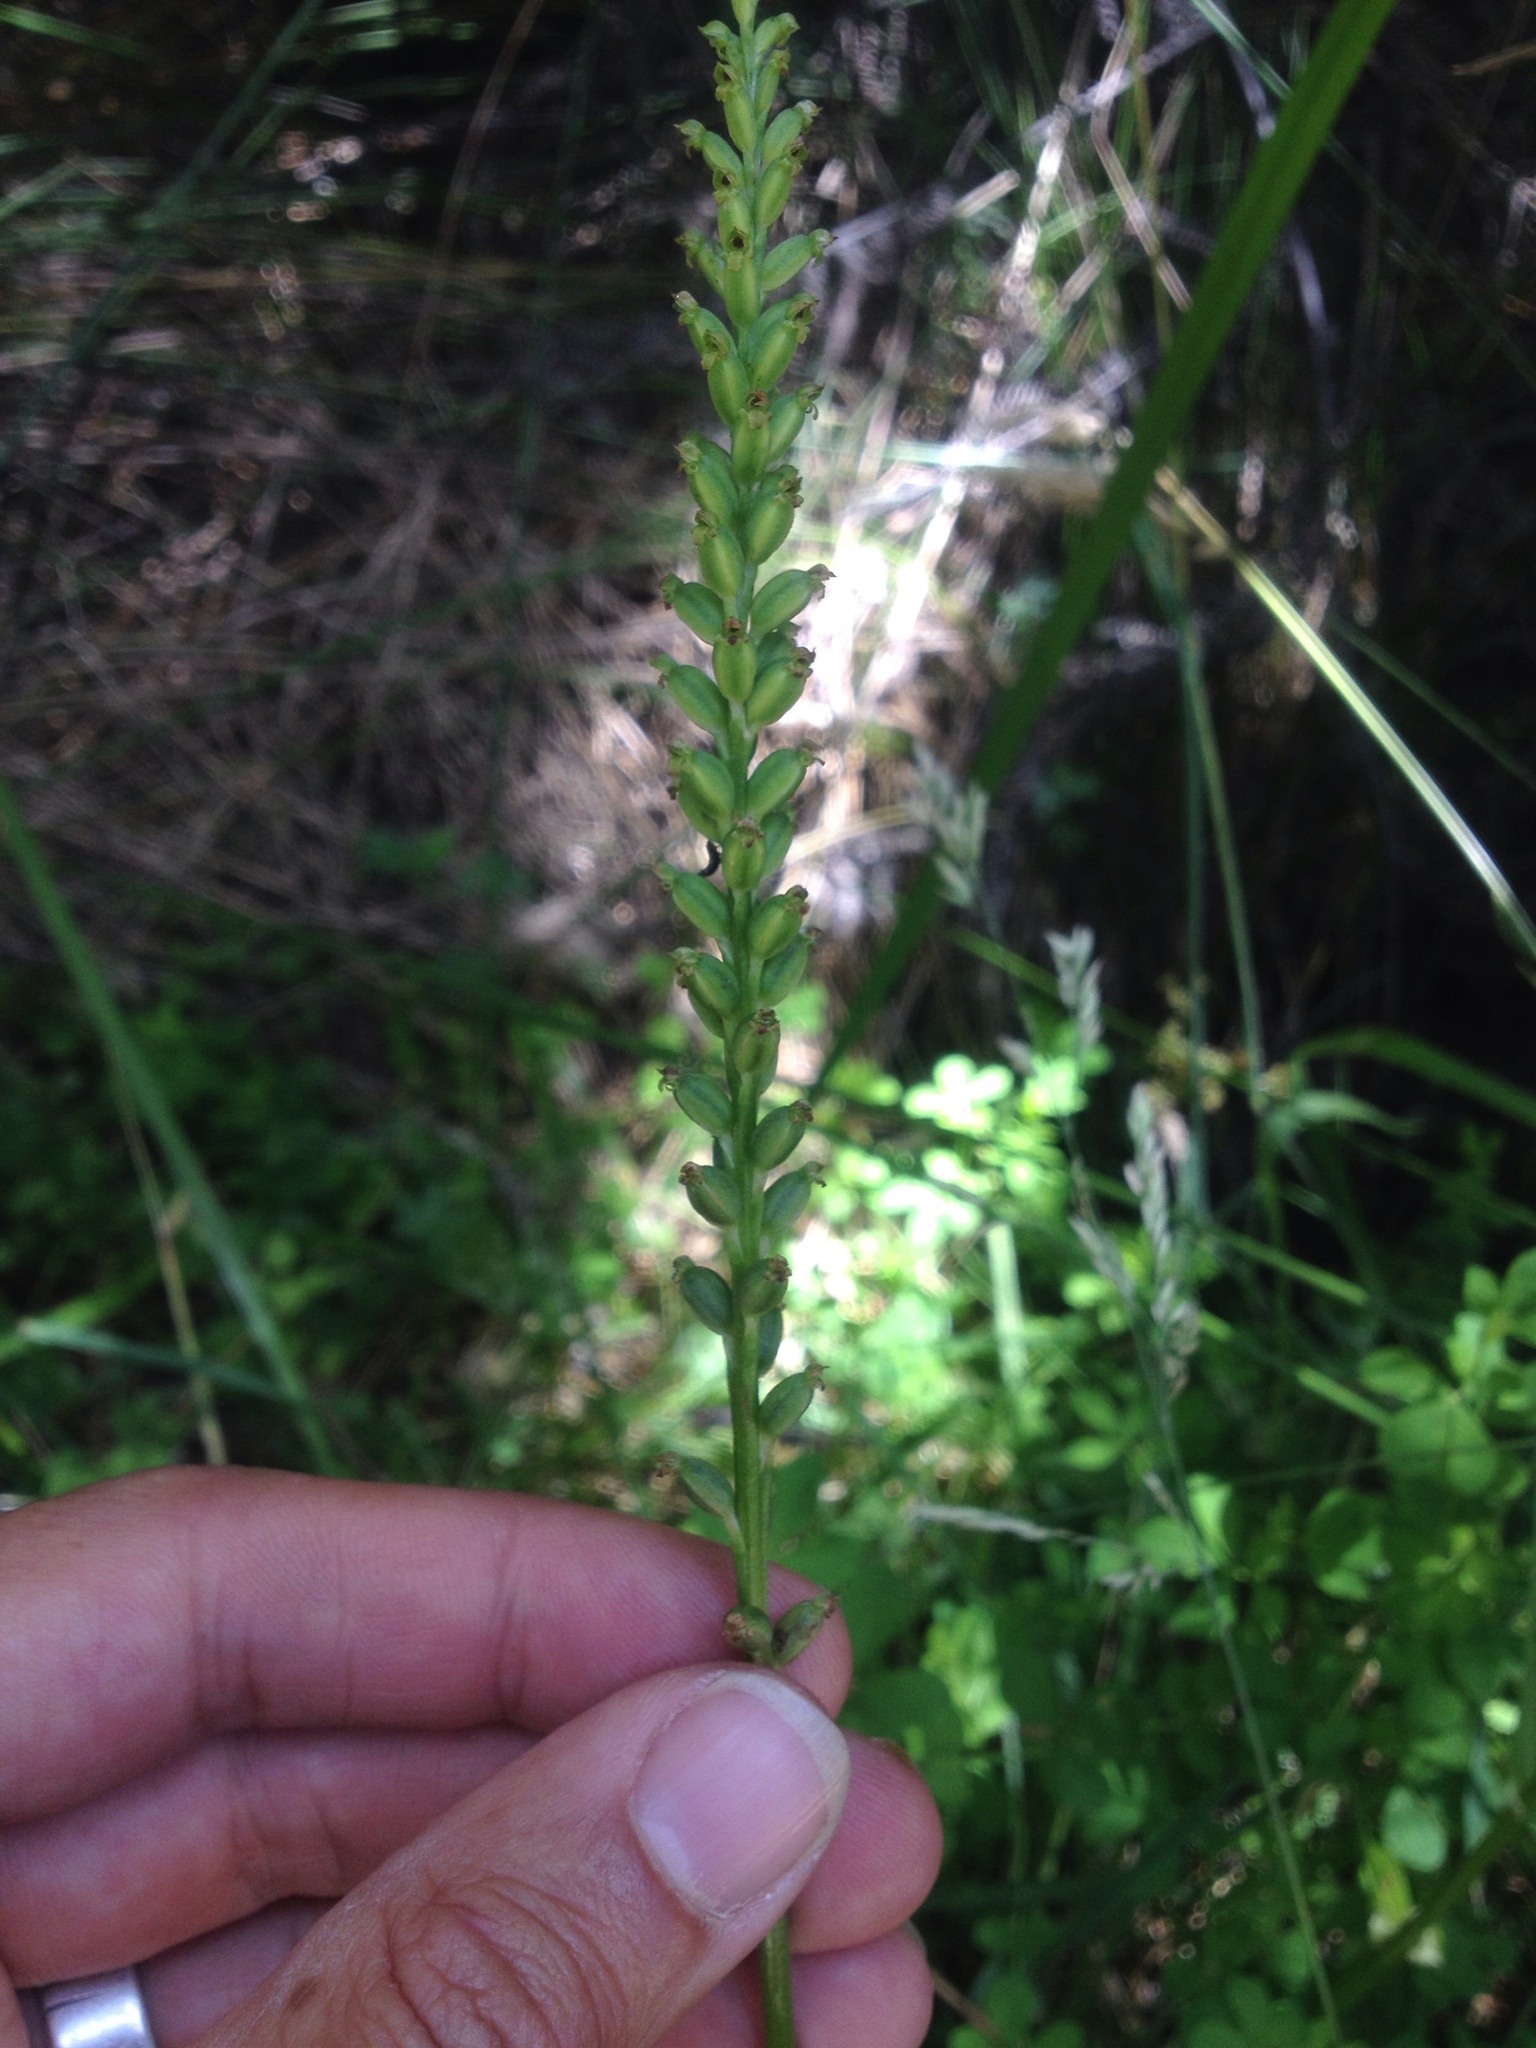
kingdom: Plantae
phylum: Tracheophyta
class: Liliopsida
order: Asparagales
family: Orchidaceae
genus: Microtis
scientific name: Microtis unifolia
